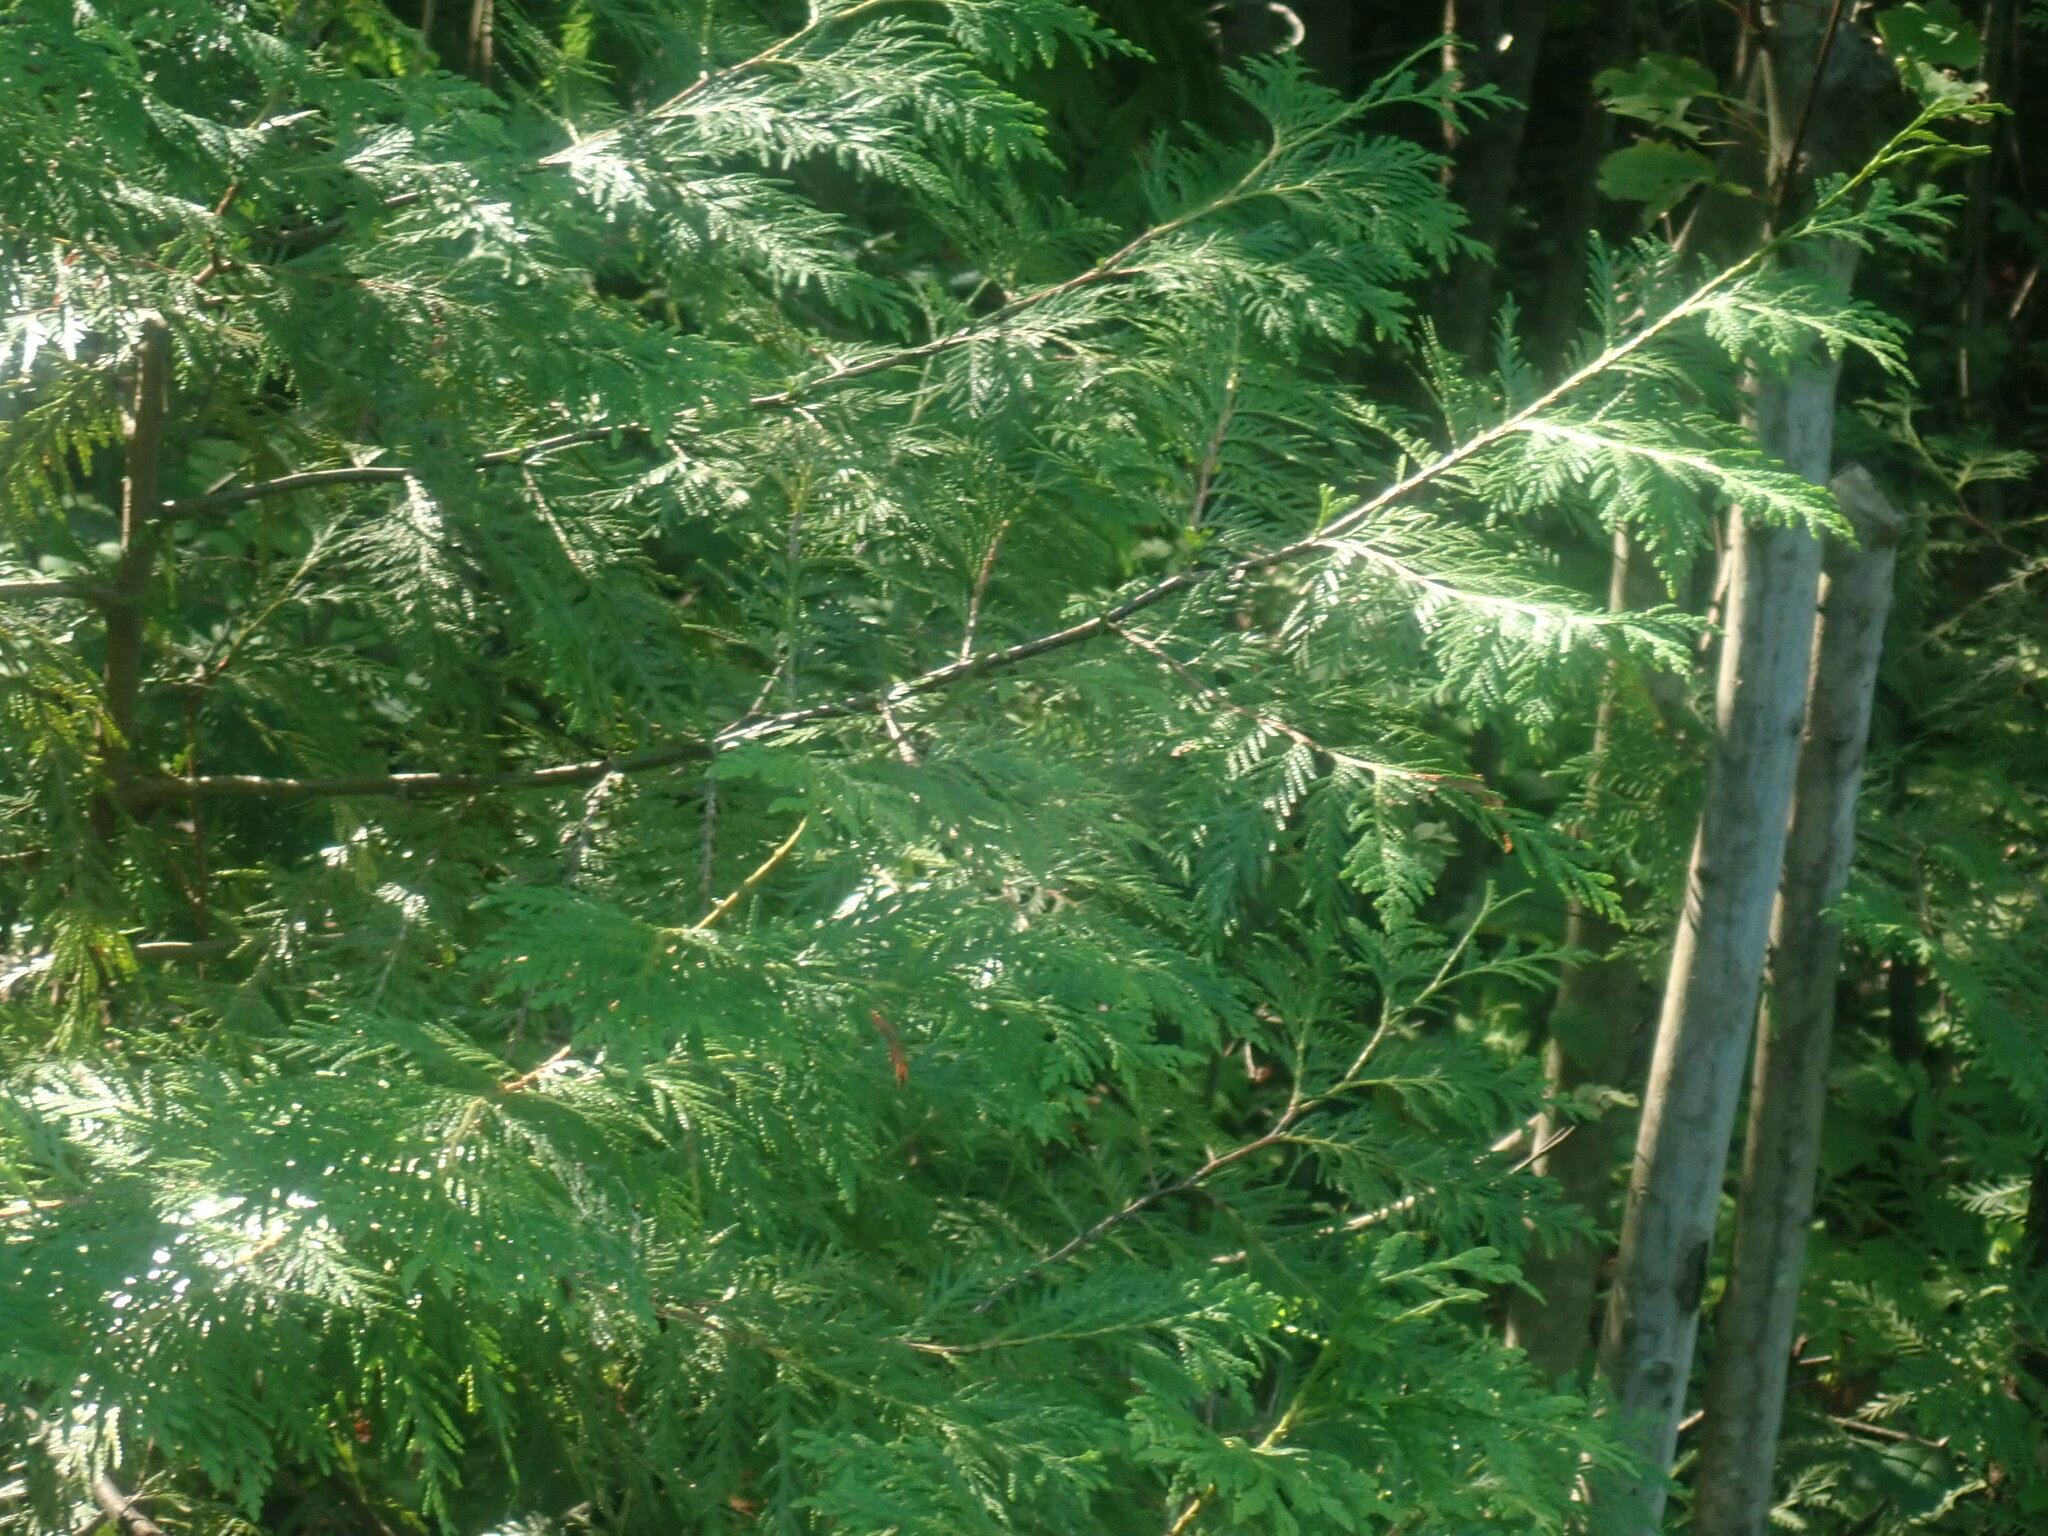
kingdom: Plantae
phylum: Tracheophyta
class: Pinopsida
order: Pinales
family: Cupressaceae
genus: Thuja
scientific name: Thuja occidentalis
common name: Northern white-cedar
